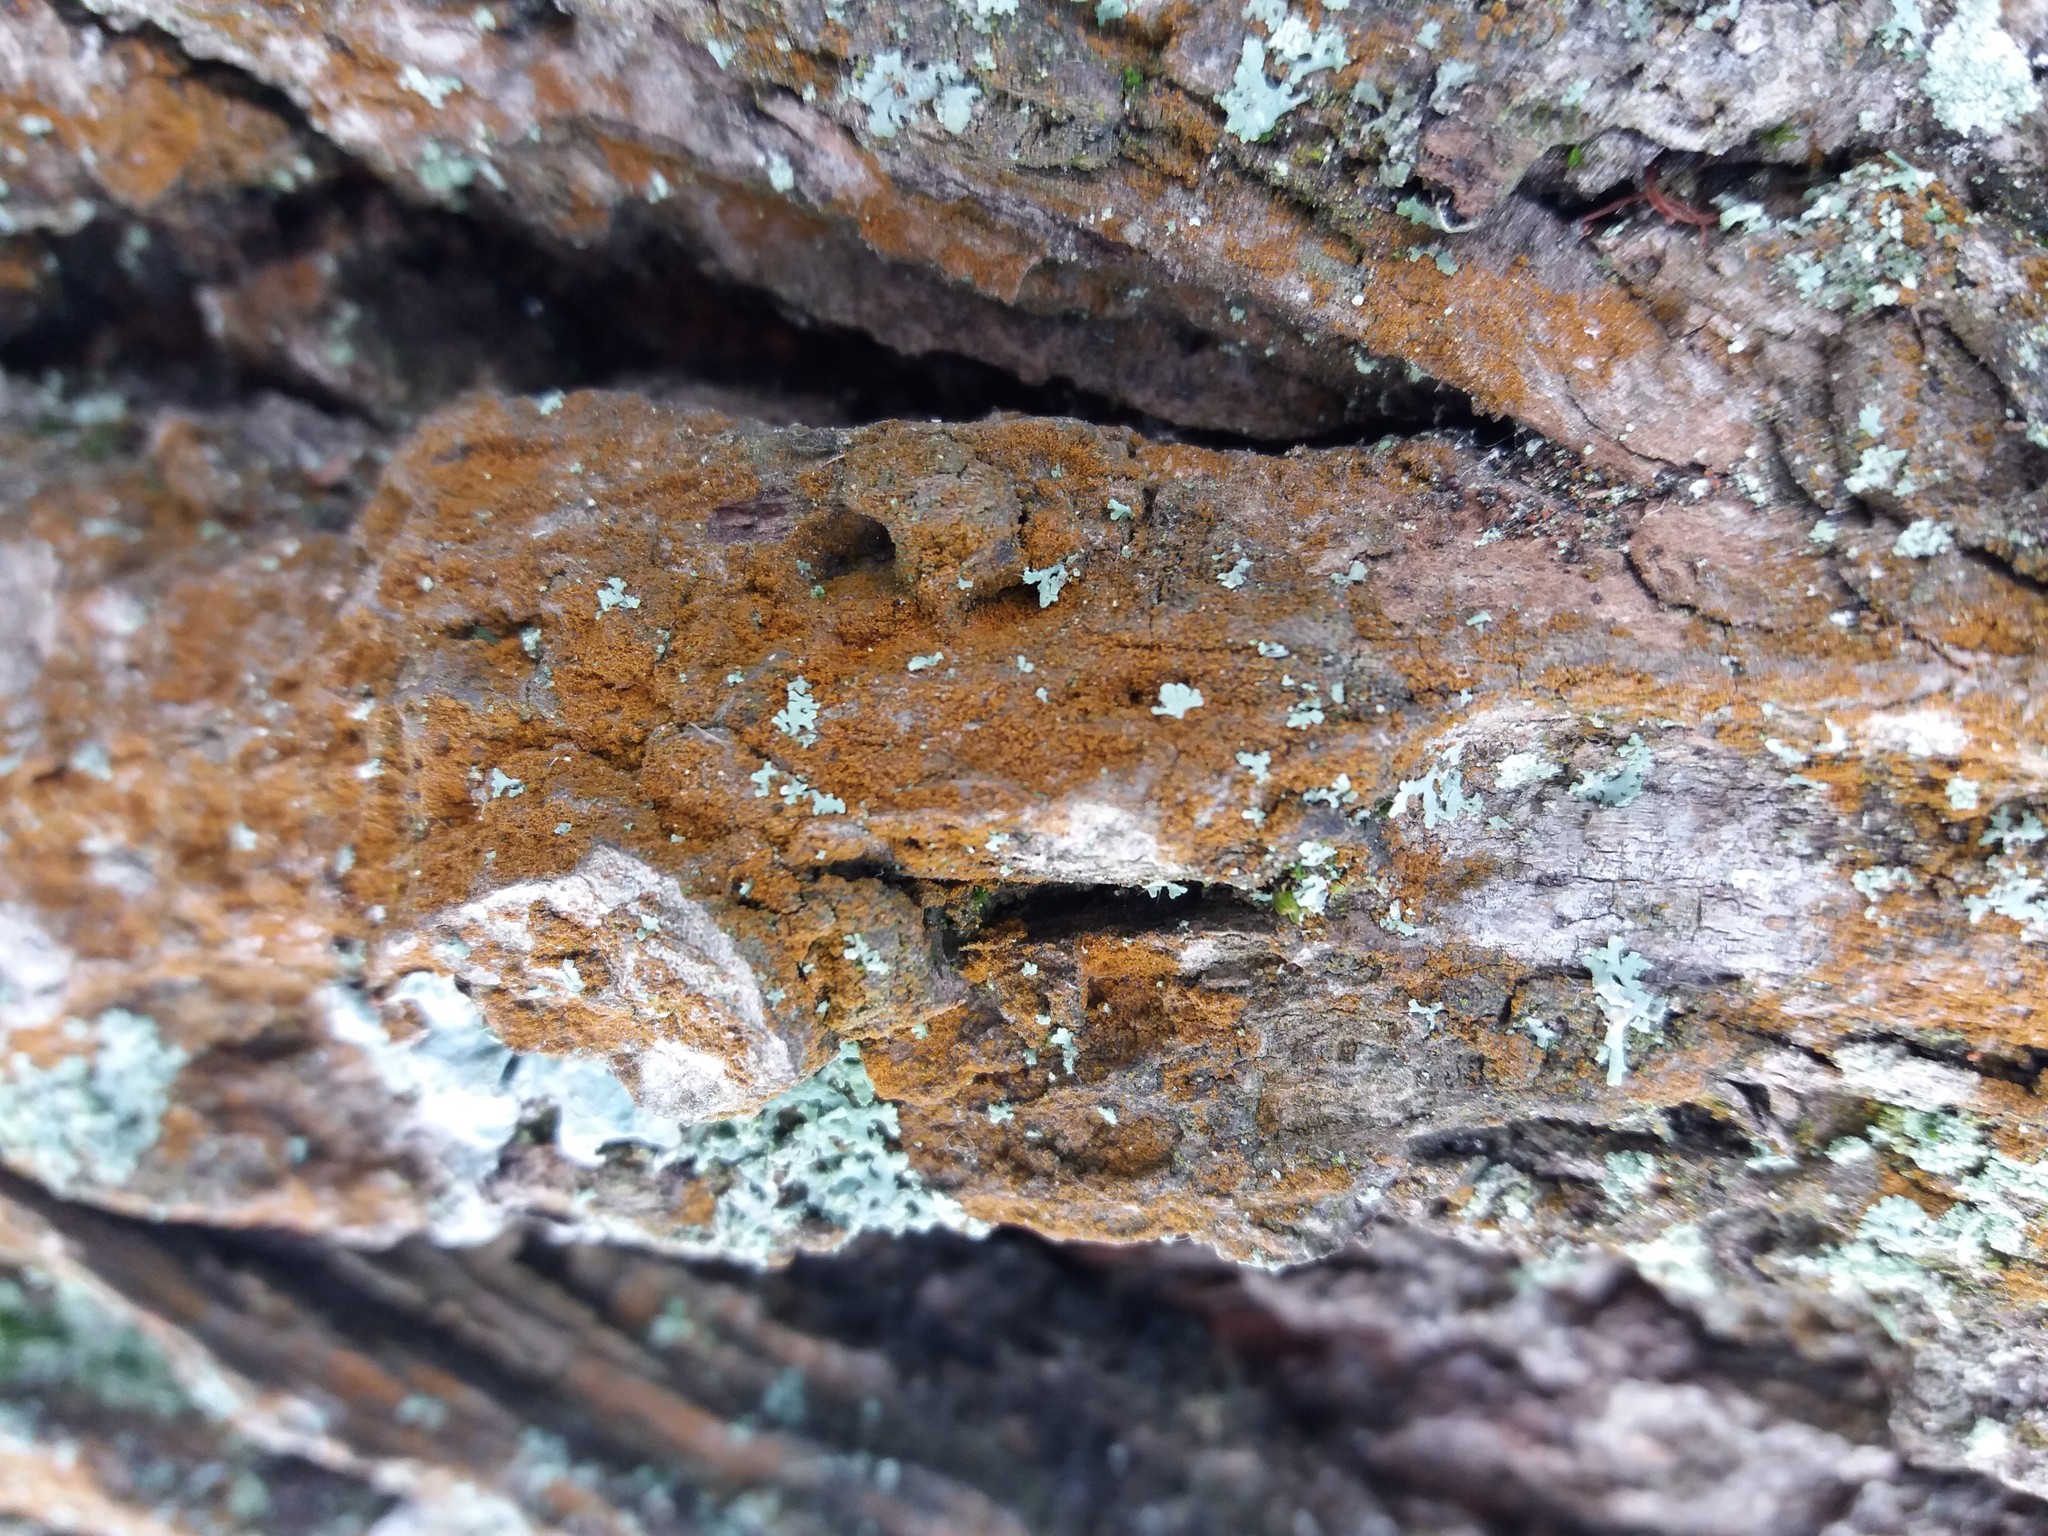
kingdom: Plantae
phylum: Chlorophyta
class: Ulvophyceae
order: Trentepohliales
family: Trentepohliaceae
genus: Trentepohlia
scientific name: Trentepohlia
